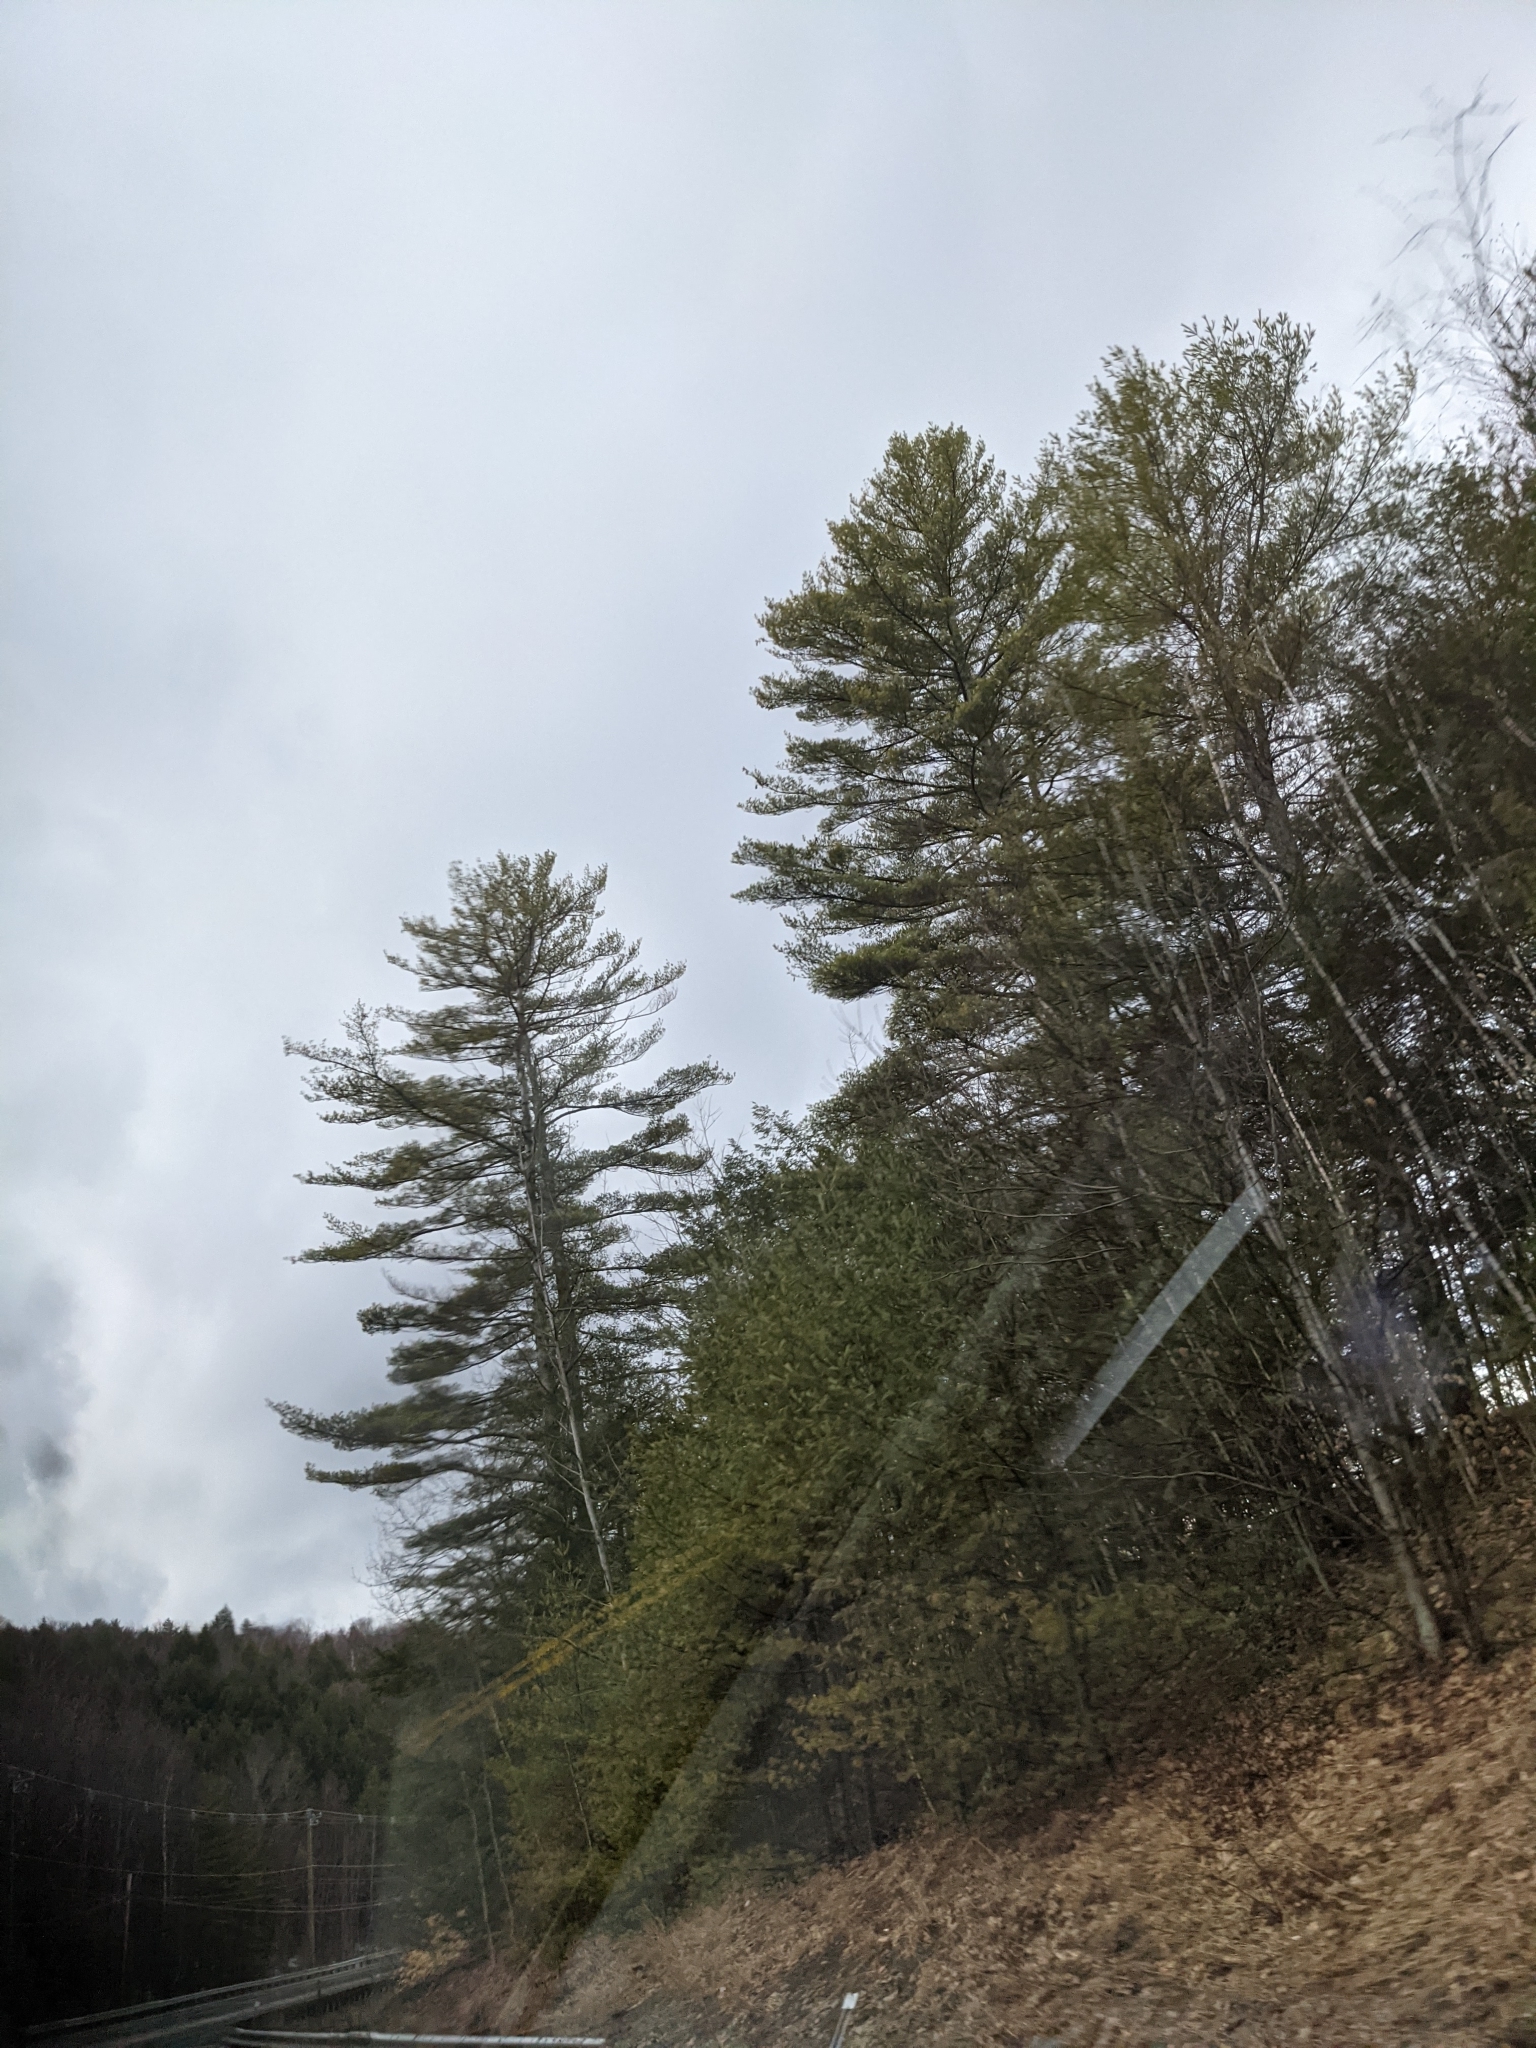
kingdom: Plantae
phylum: Tracheophyta
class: Pinopsida
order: Pinales
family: Pinaceae
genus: Pinus
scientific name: Pinus strobus
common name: Weymouth pine
